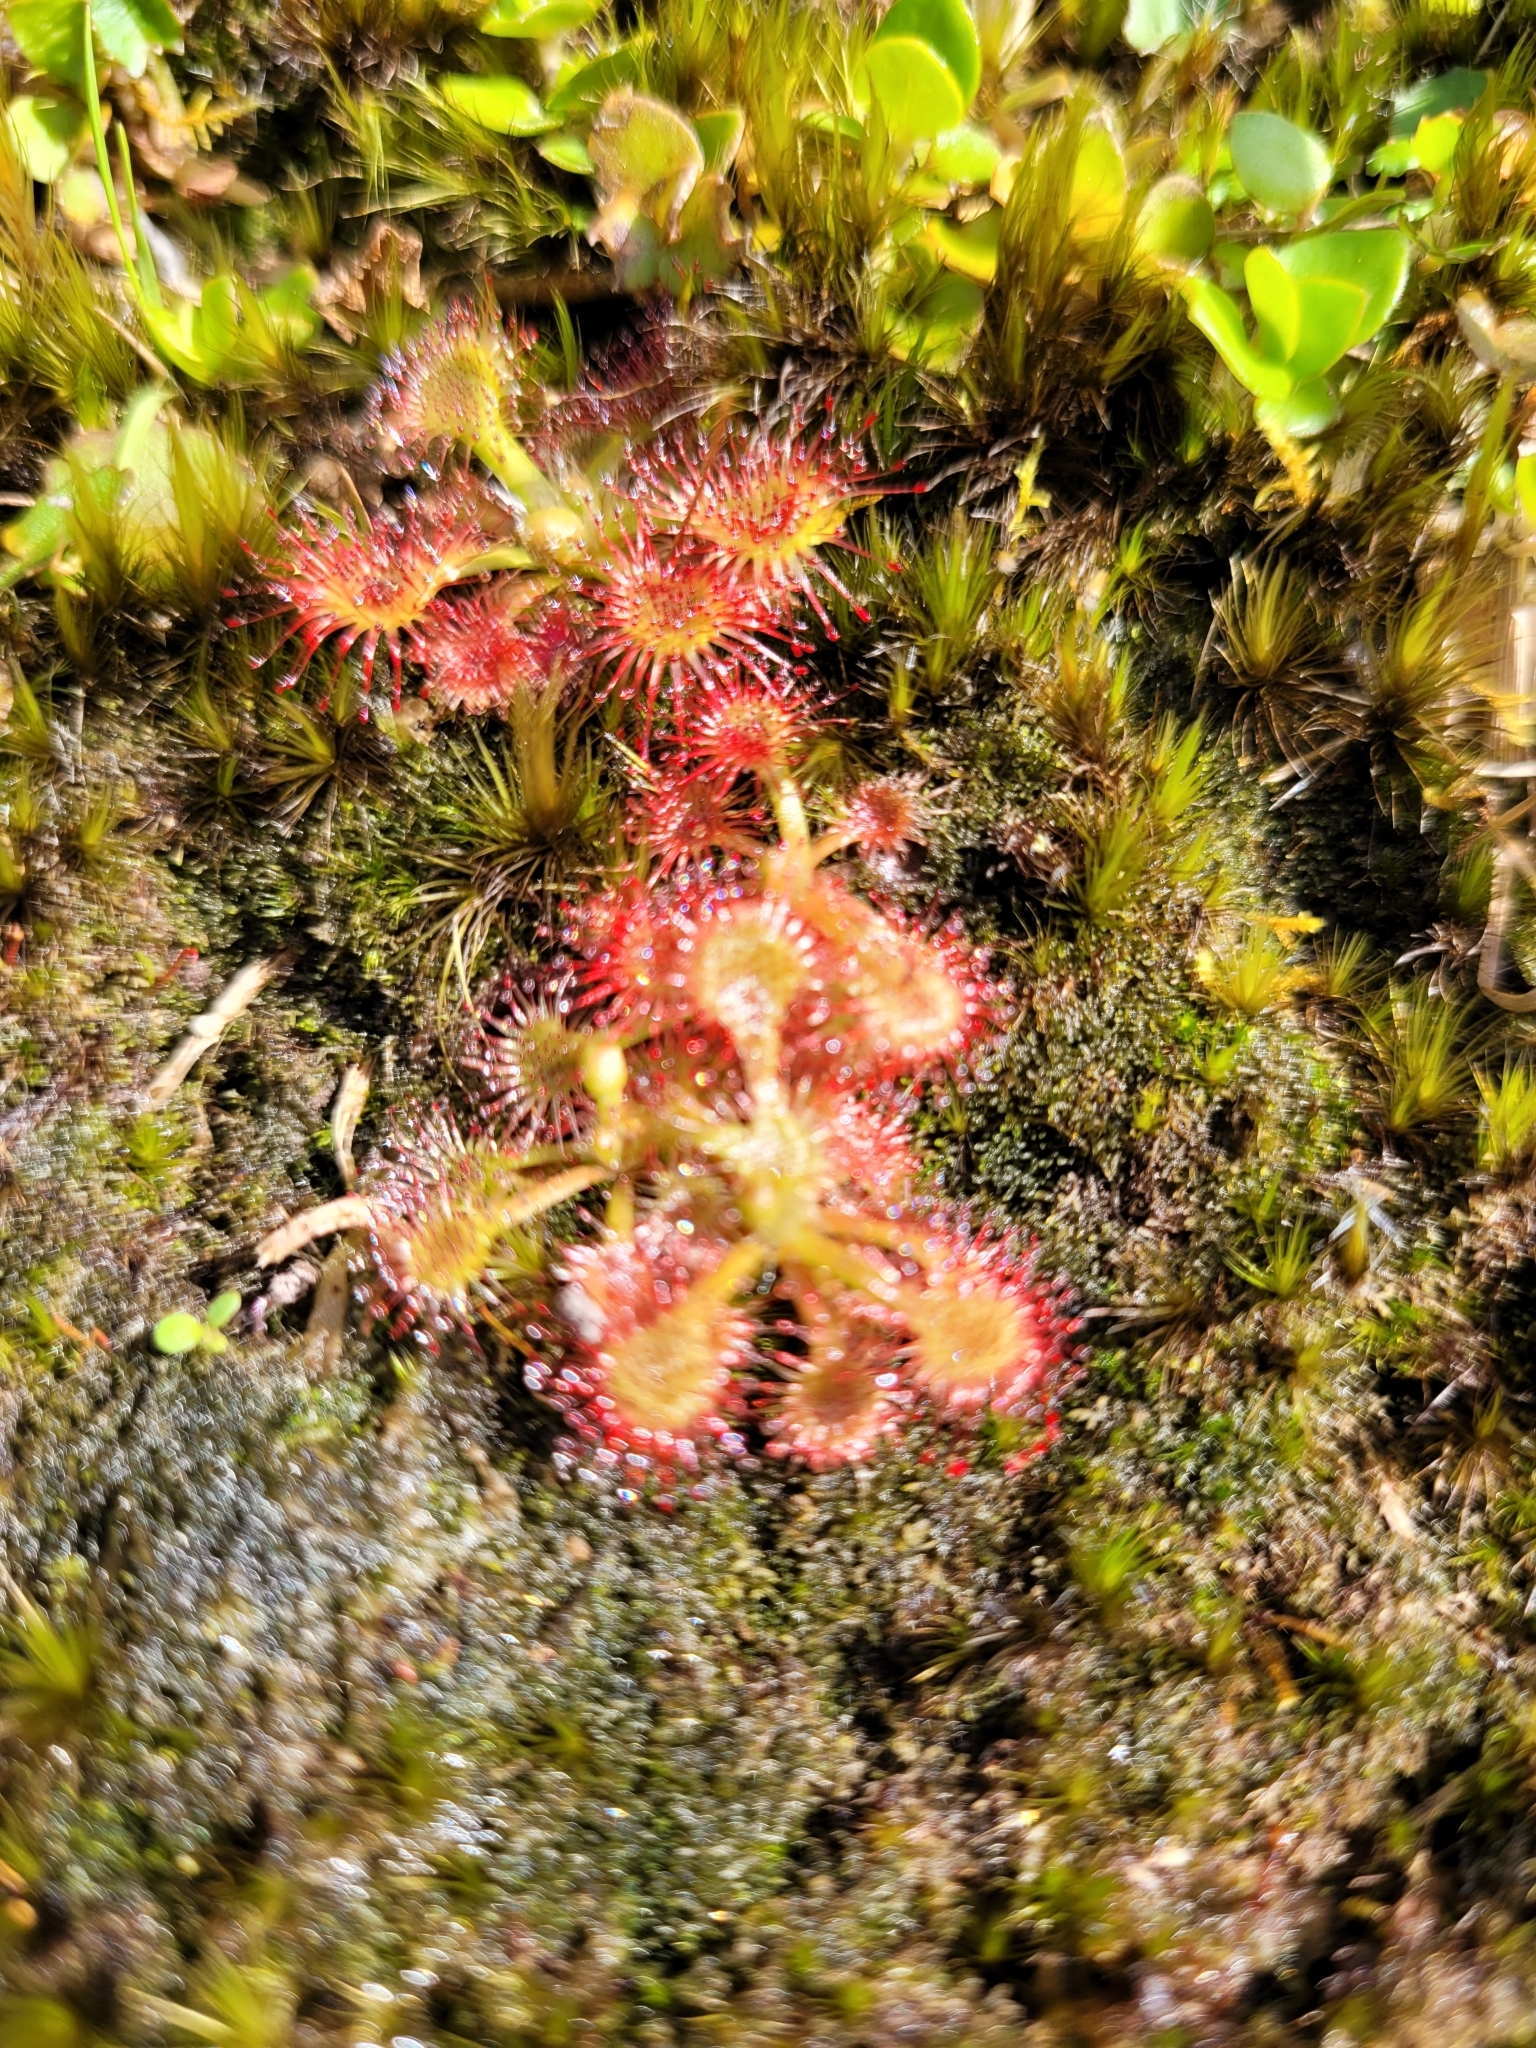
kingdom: Plantae
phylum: Tracheophyta
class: Magnoliopsida
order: Caryophyllales
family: Droseraceae
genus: Drosera
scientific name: Drosera spatulata
